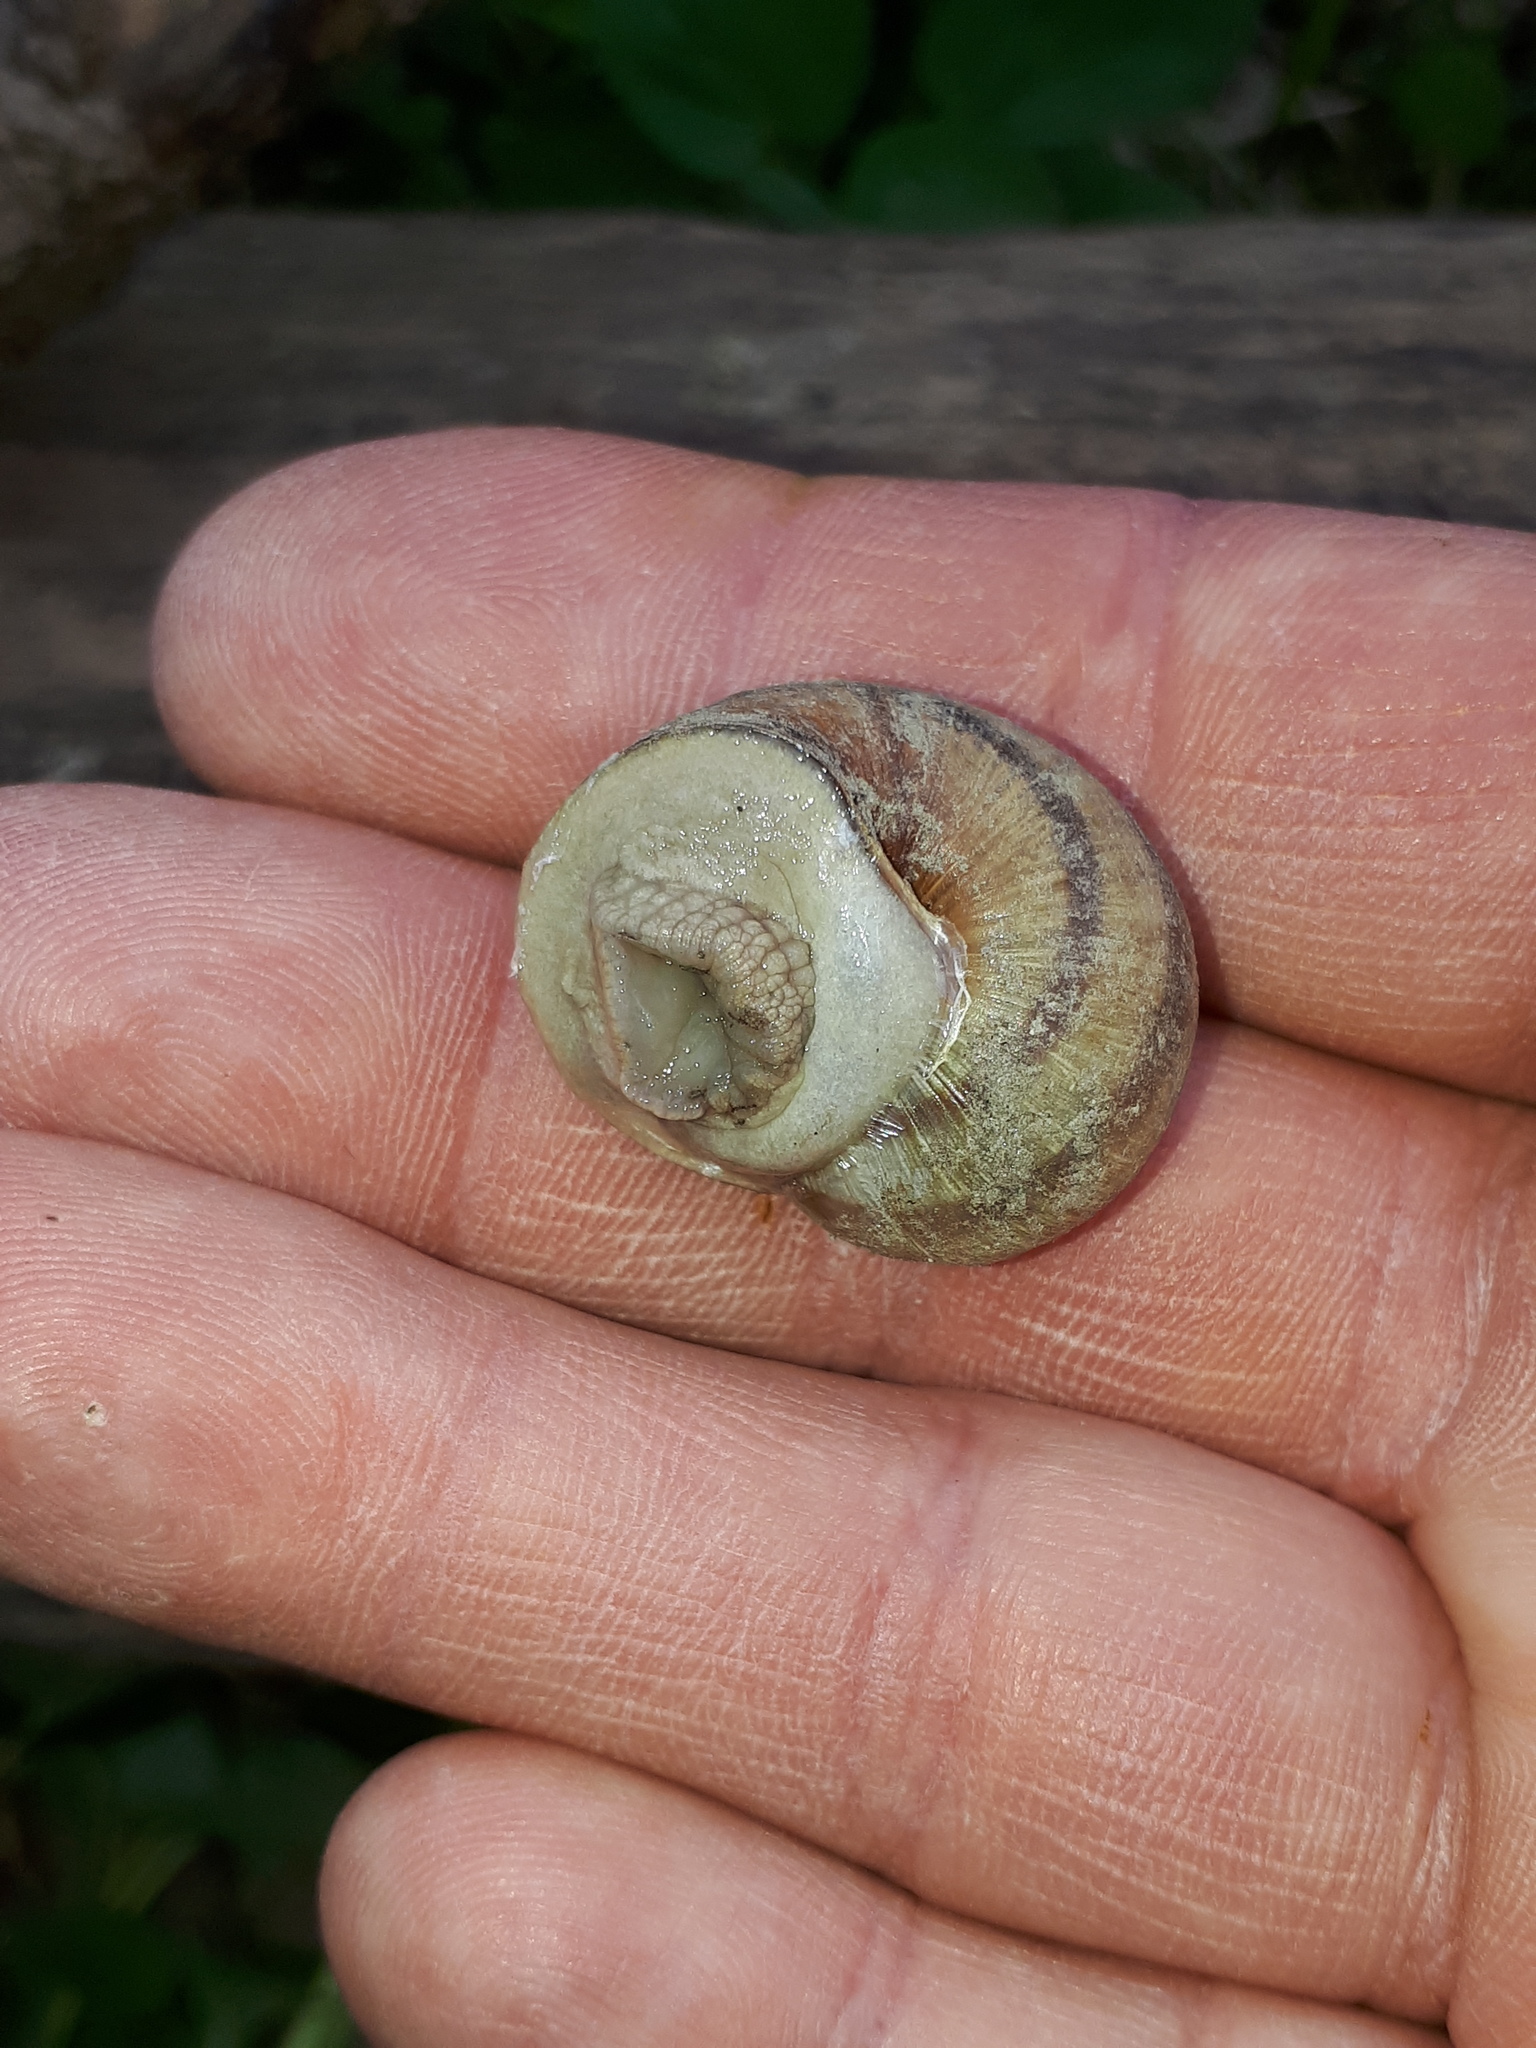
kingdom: Animalia
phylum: Mollusca
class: Gastropoda
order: Stylommatophora
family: Helicidae
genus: Helix
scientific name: Helix pomatia
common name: Roman snail
